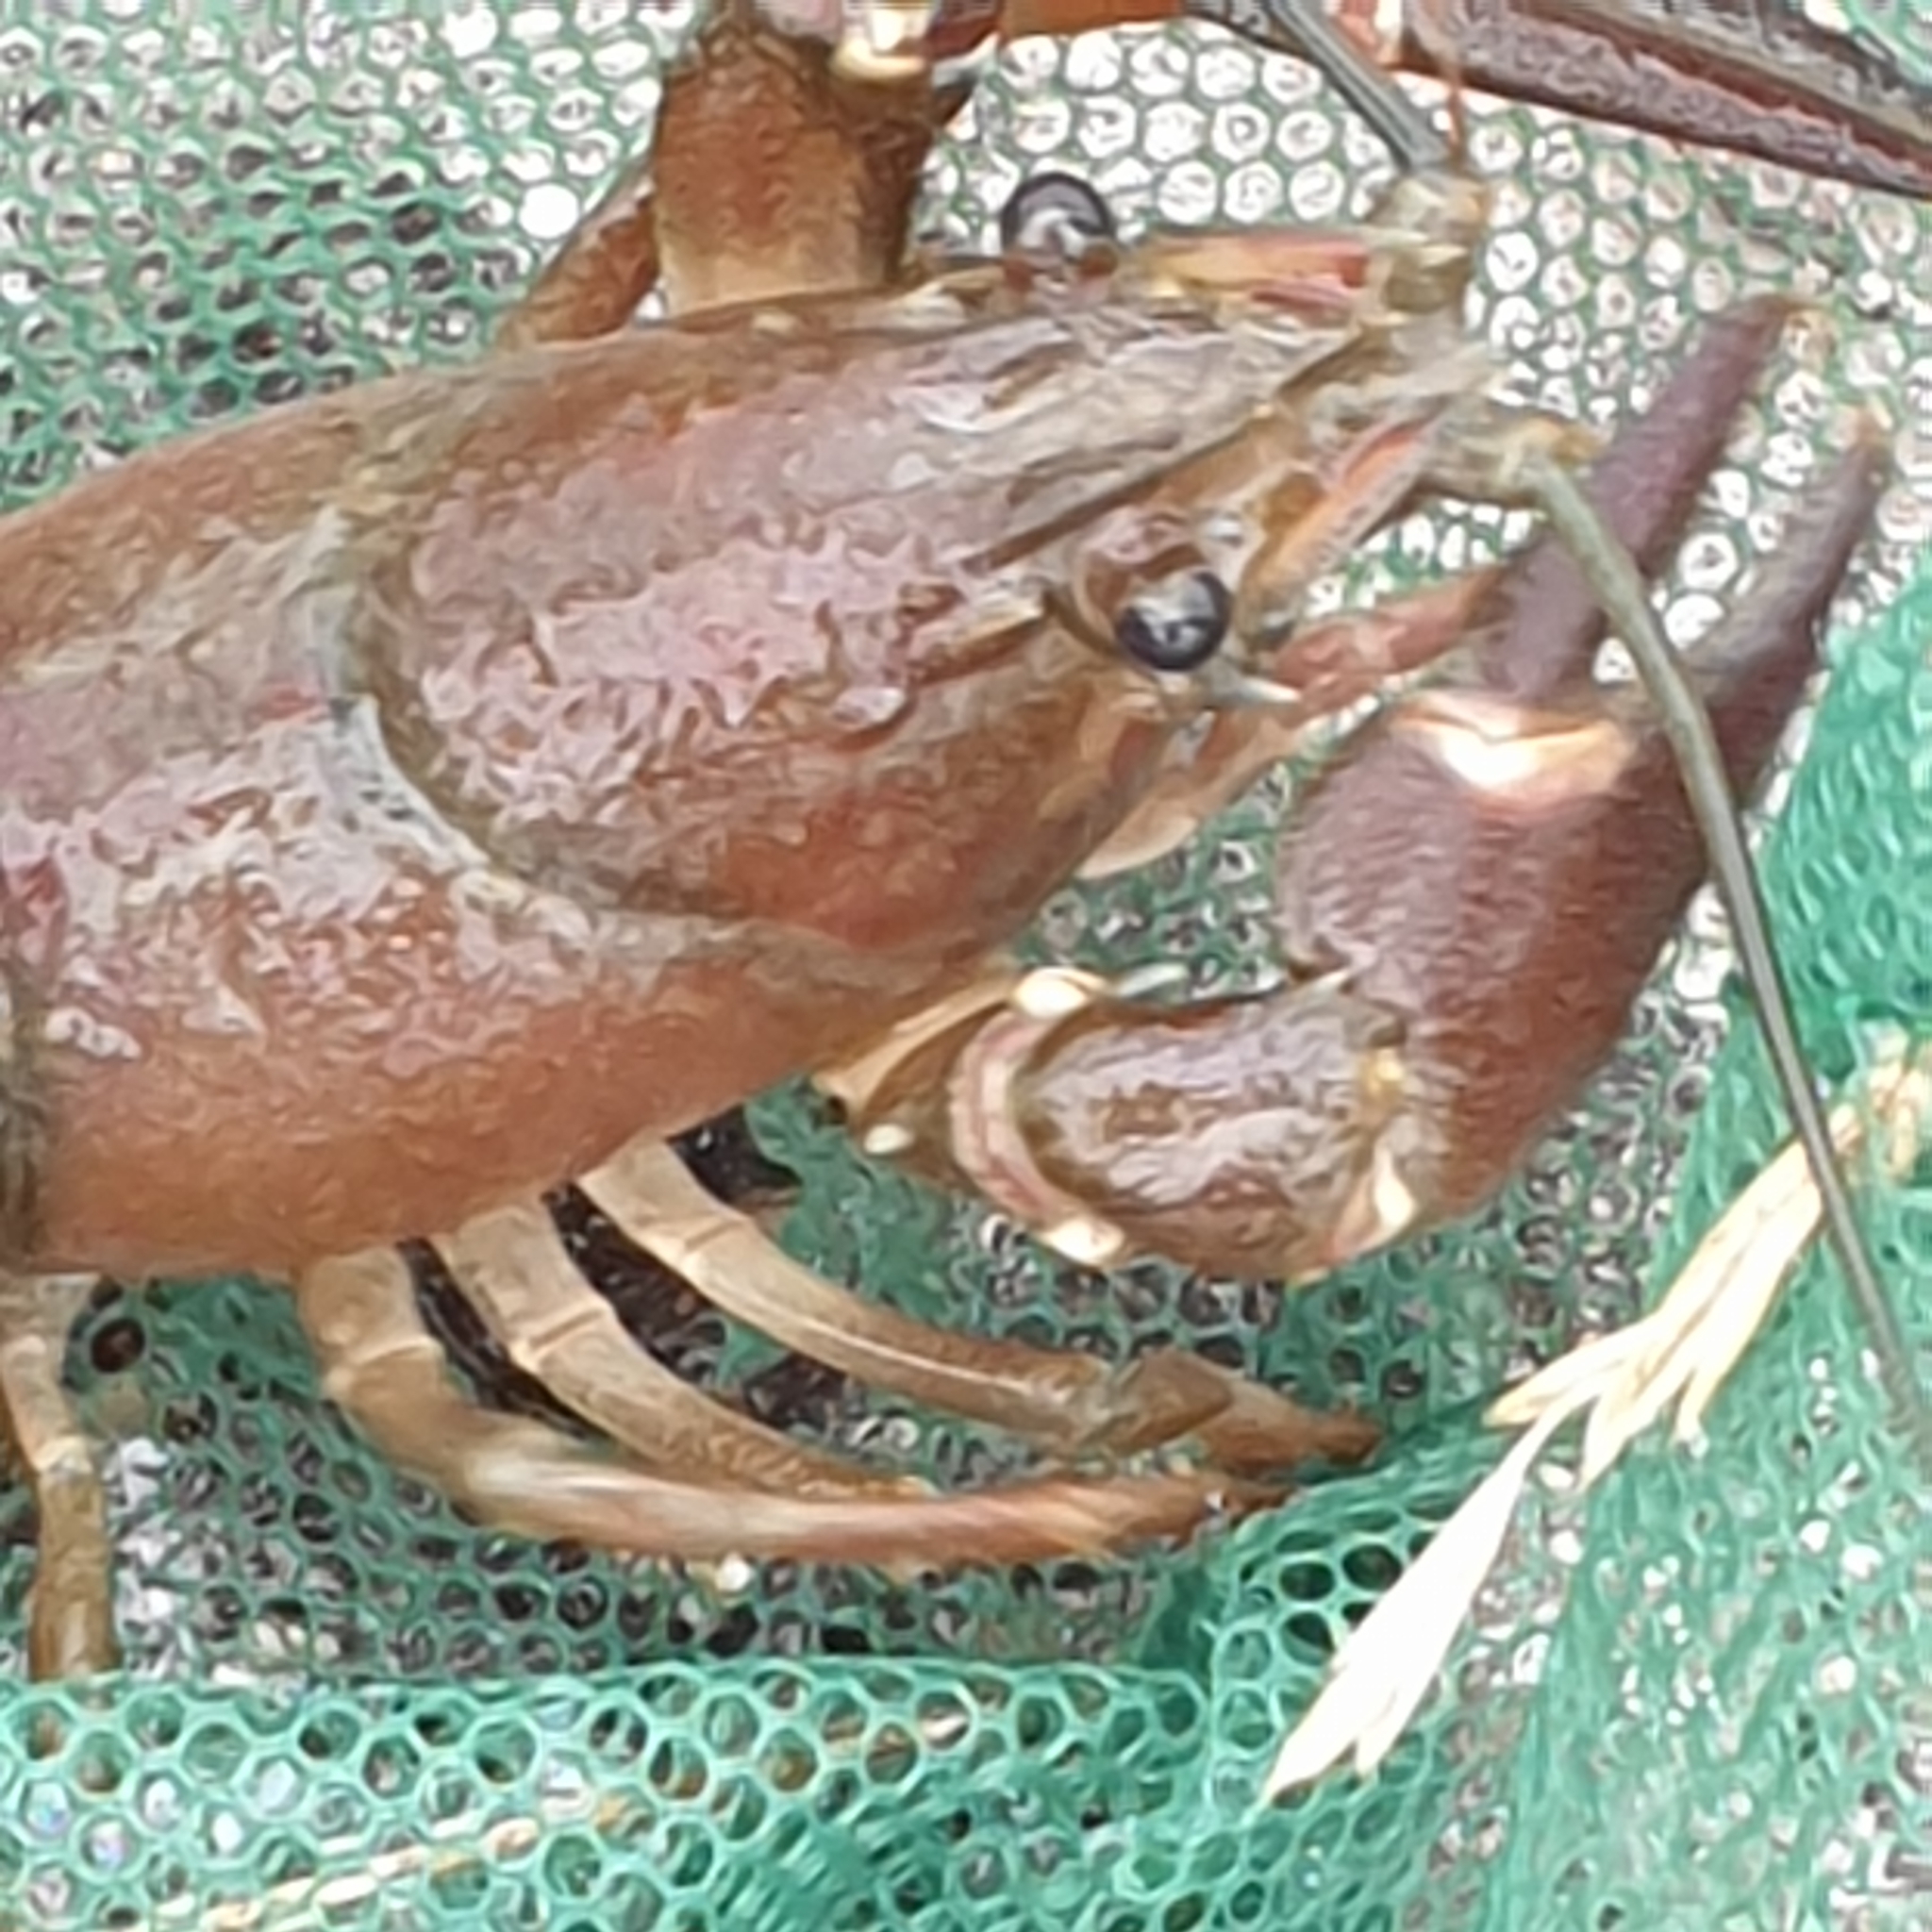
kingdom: Animalia
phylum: Arthropoda
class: Malacostraca
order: Decapoda
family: Astacidae
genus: Pacifastacus
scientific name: Pacifastacus leniusculus
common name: Signal crayfish
